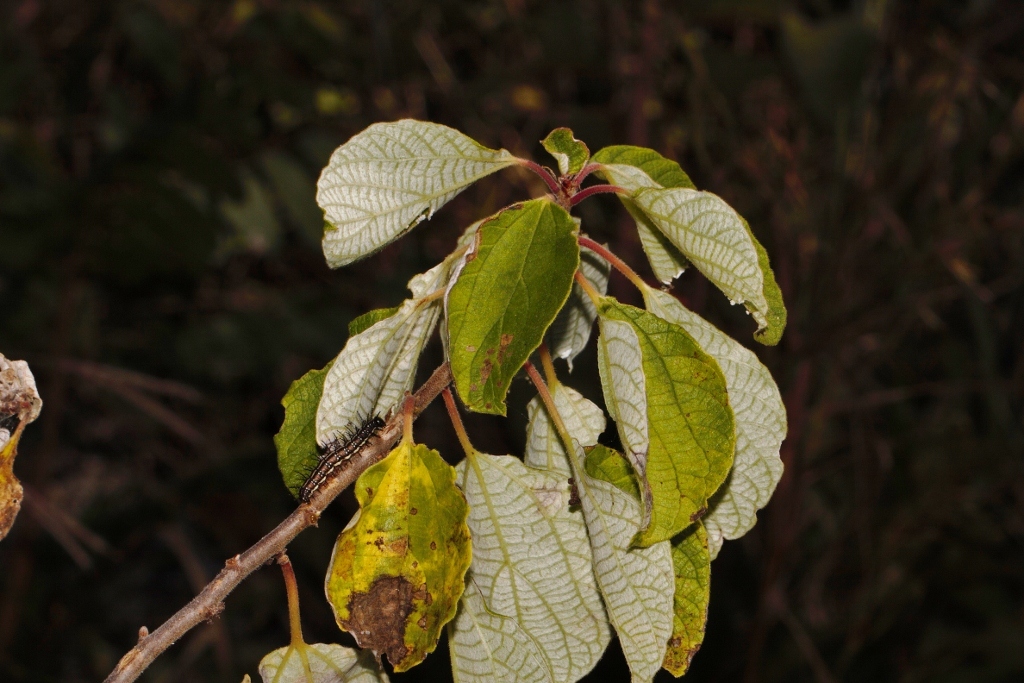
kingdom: Plantae
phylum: Tracheophyta
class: Magnoliopsida
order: Rosales
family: Urticaceae
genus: Pouzolzia
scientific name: Pouzolzia mixta
